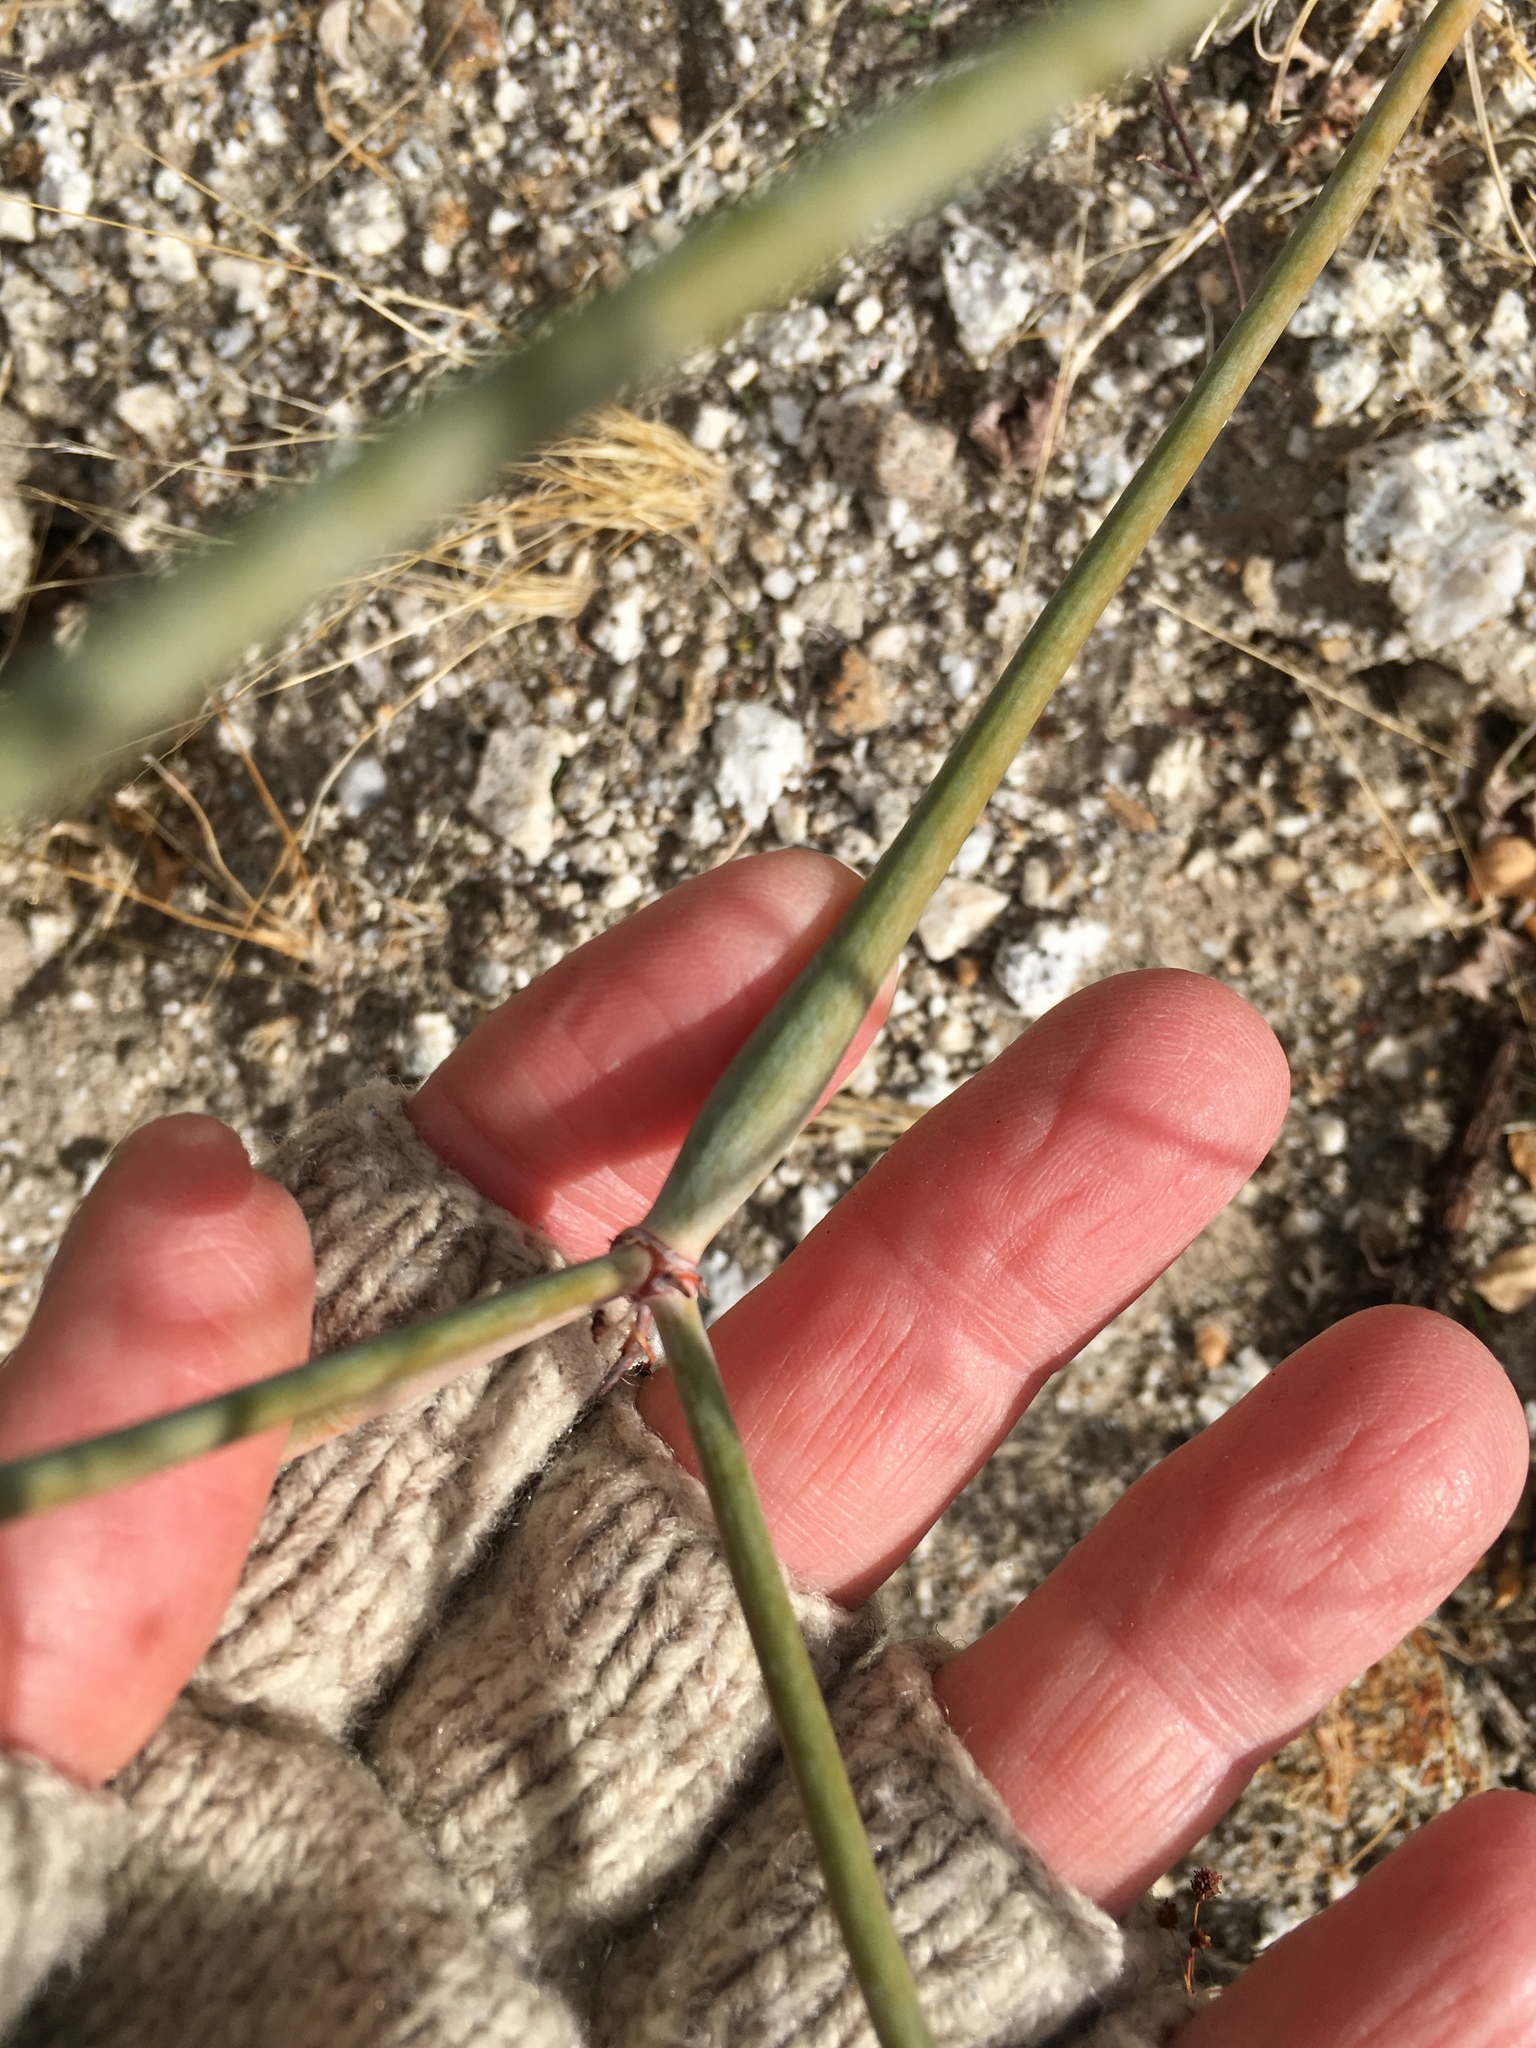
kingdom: Plantae
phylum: Tracheophyta
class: Magnoliopsida
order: Caryophyllales
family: Polygonaceae
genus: Eriogonum
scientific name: Eriogonum inflatum
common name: Desert trumpet
